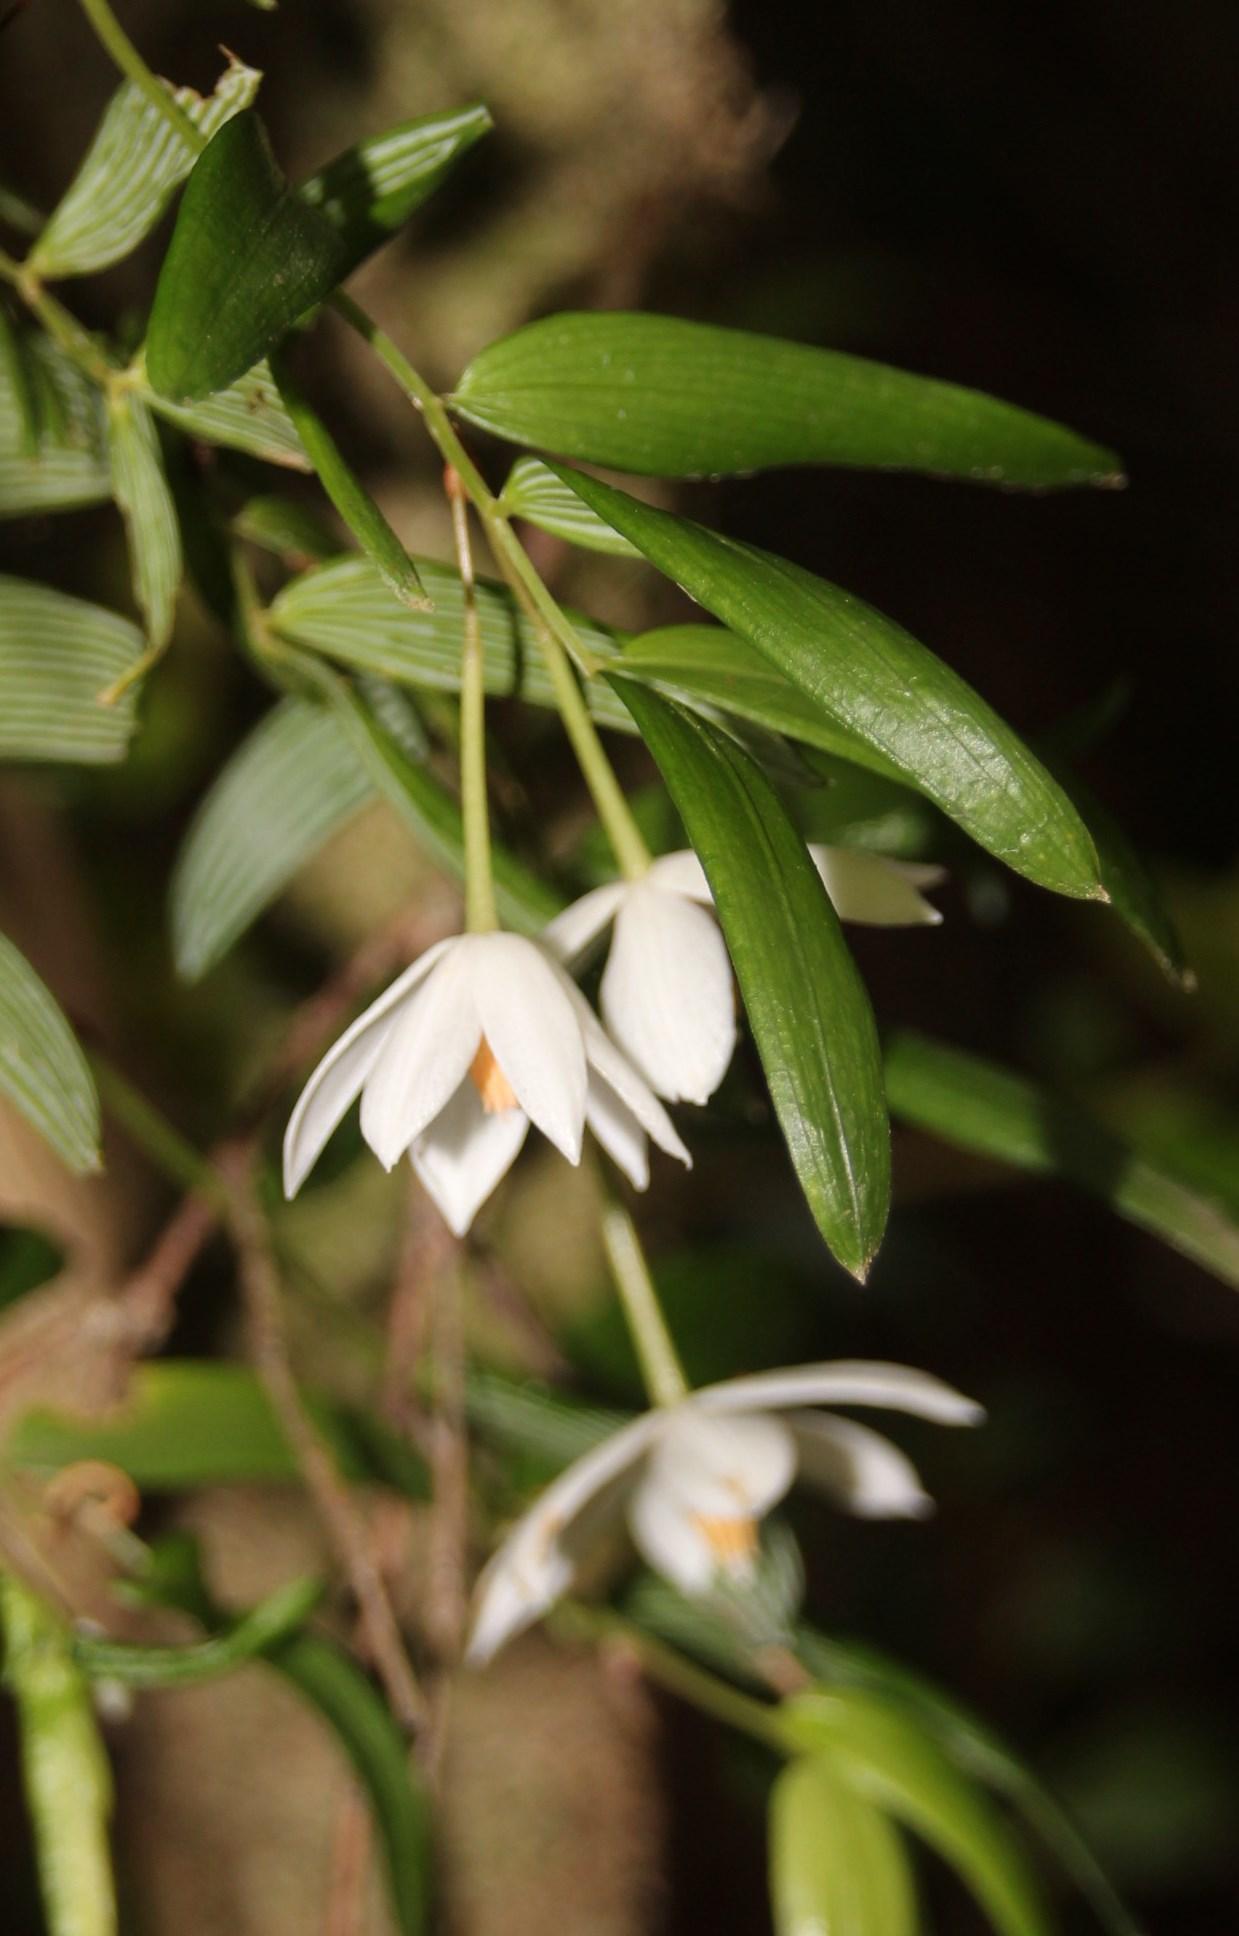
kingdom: Plantae
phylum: Tracheophyta
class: Liliopsida
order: Liliales
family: Alstroemeriaceae
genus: Luzuriaga
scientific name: Luzuriaga radicans
